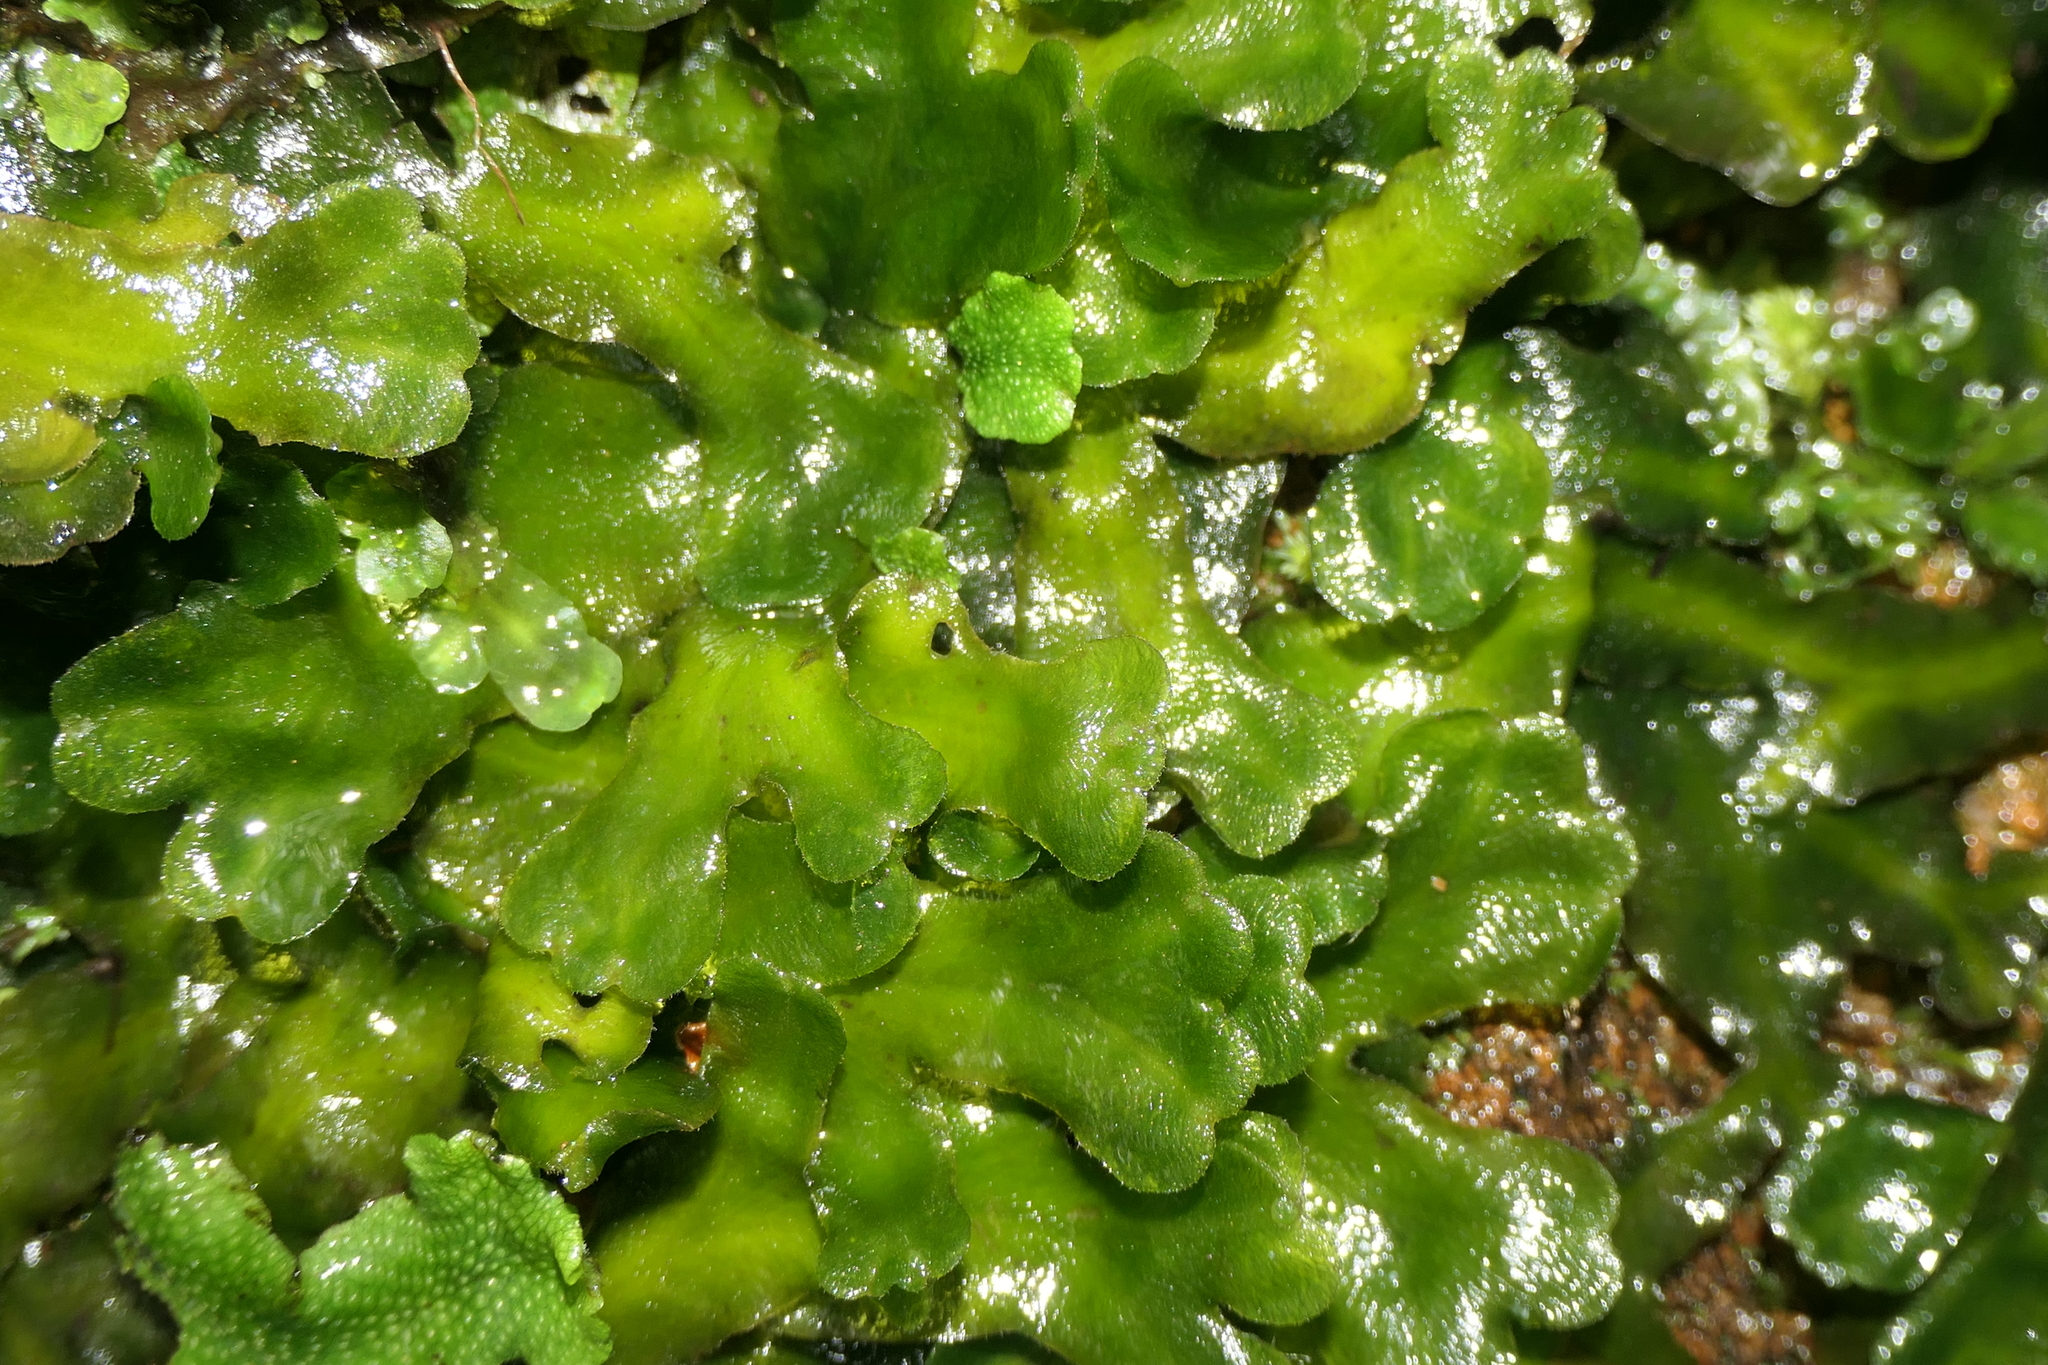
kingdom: Plantae
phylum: Marchantiophyta
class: Marchantiopsida
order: Marchantiales
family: Dumortieraceae
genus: Dumortiera
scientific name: Dumortiera hirsuta
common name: Dumortier's liverwort
